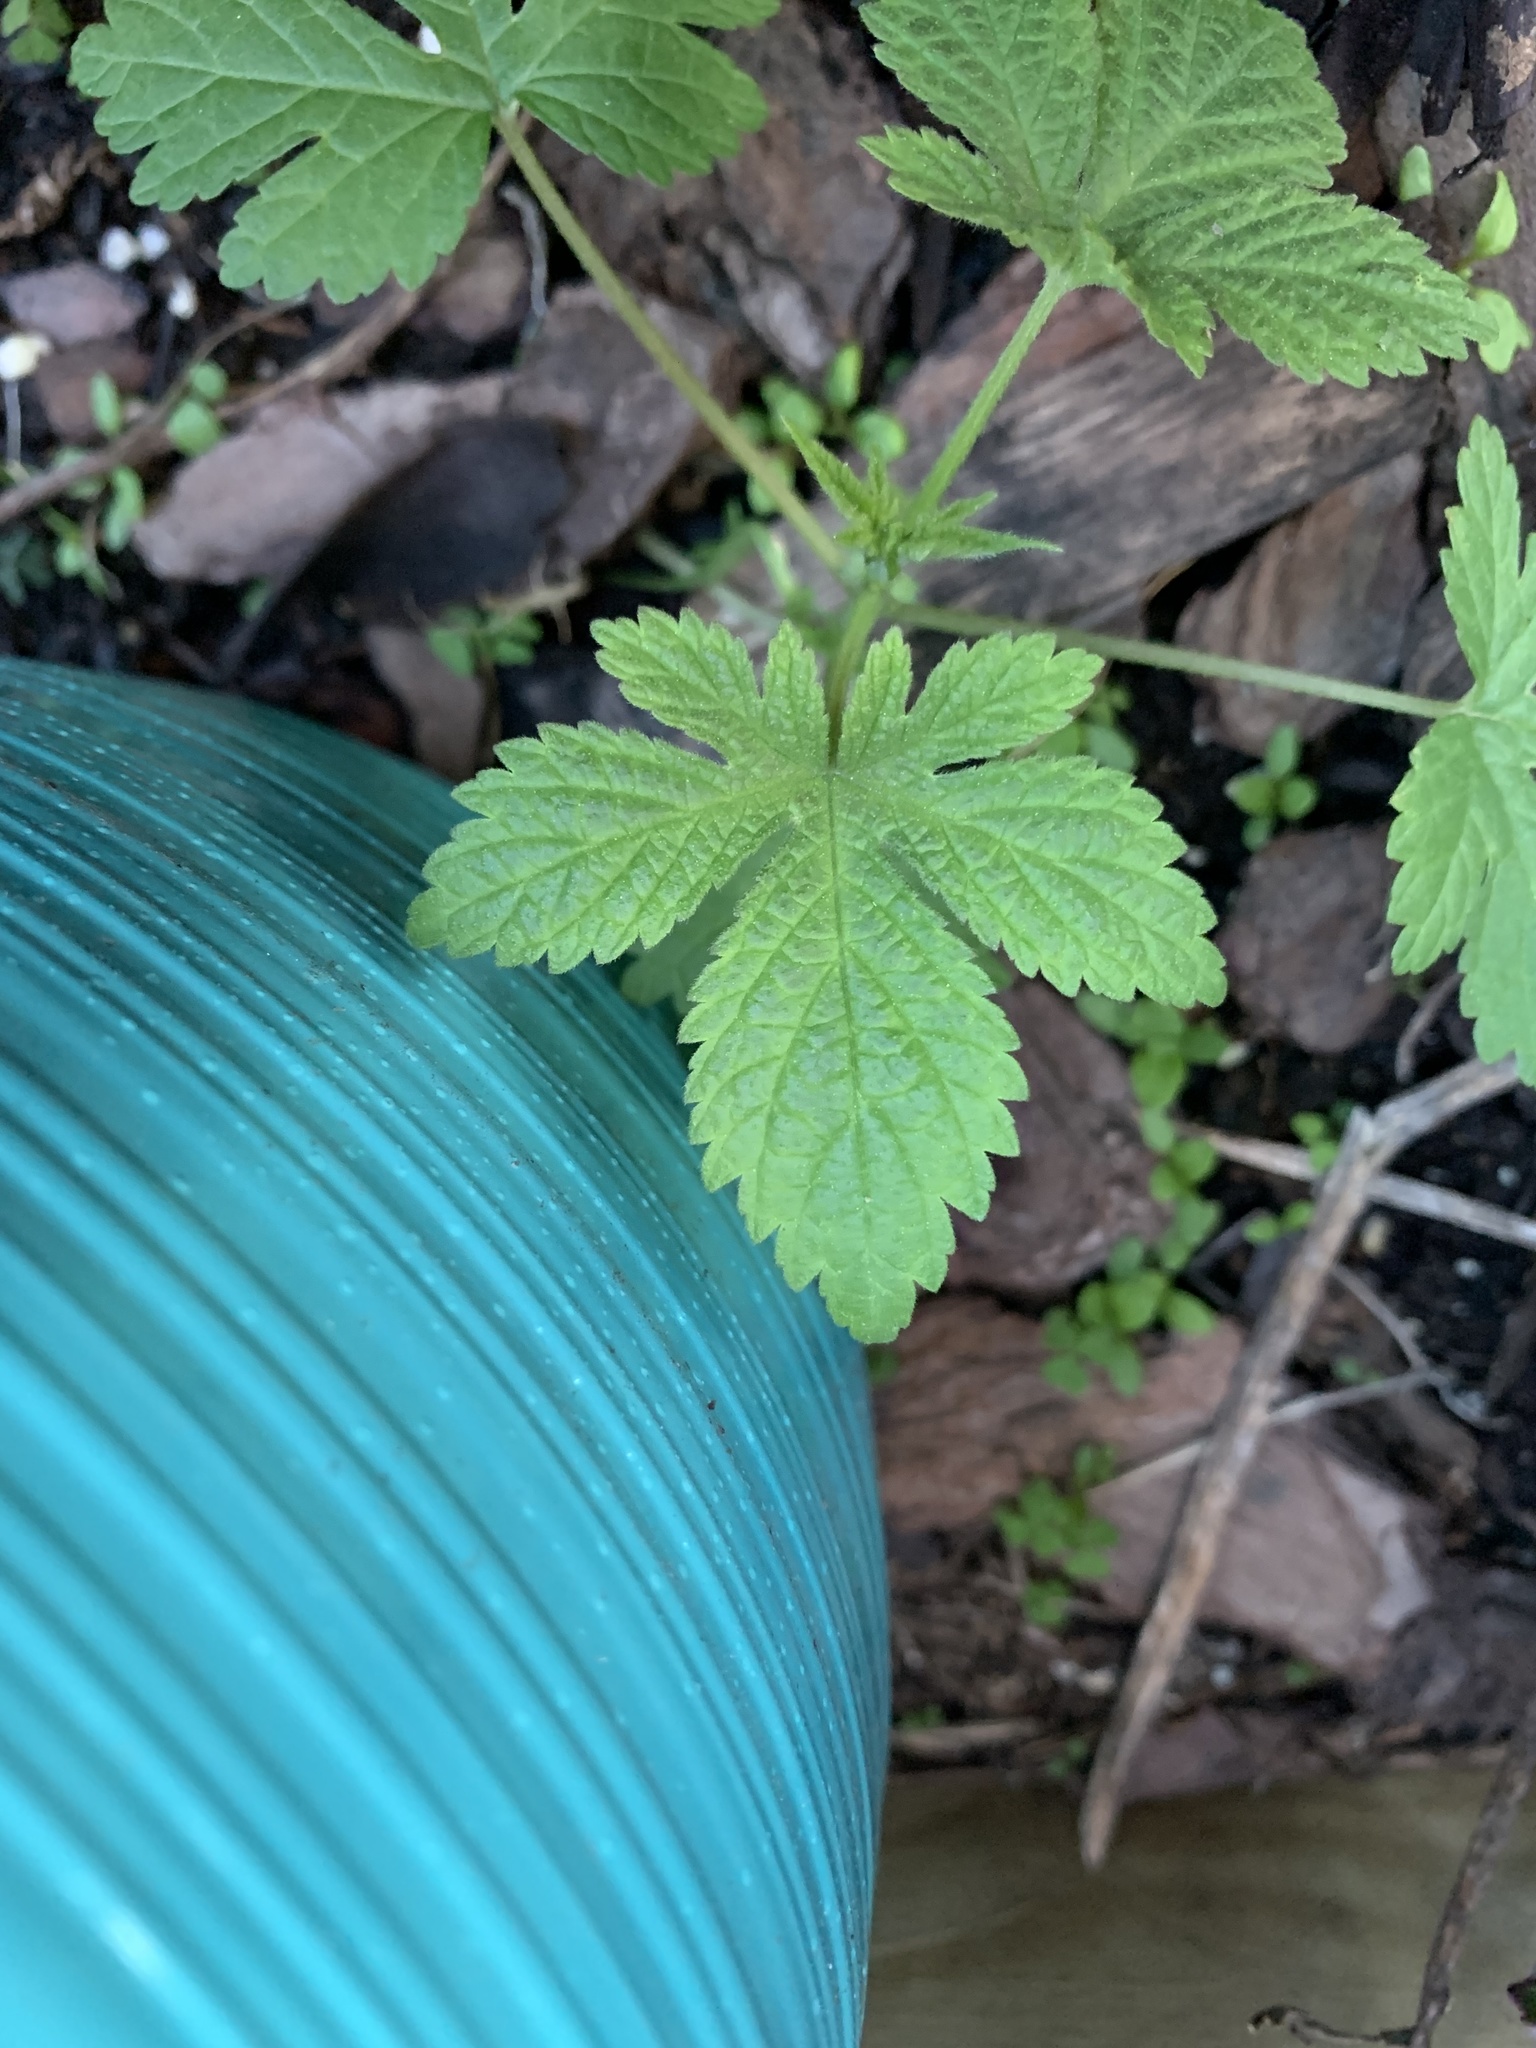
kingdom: Plantae
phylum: Tracheophyta
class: Magnoliopsida
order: Rosales
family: Cannabaceae
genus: Humulus
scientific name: Humulus scandens
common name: Japanese hop
